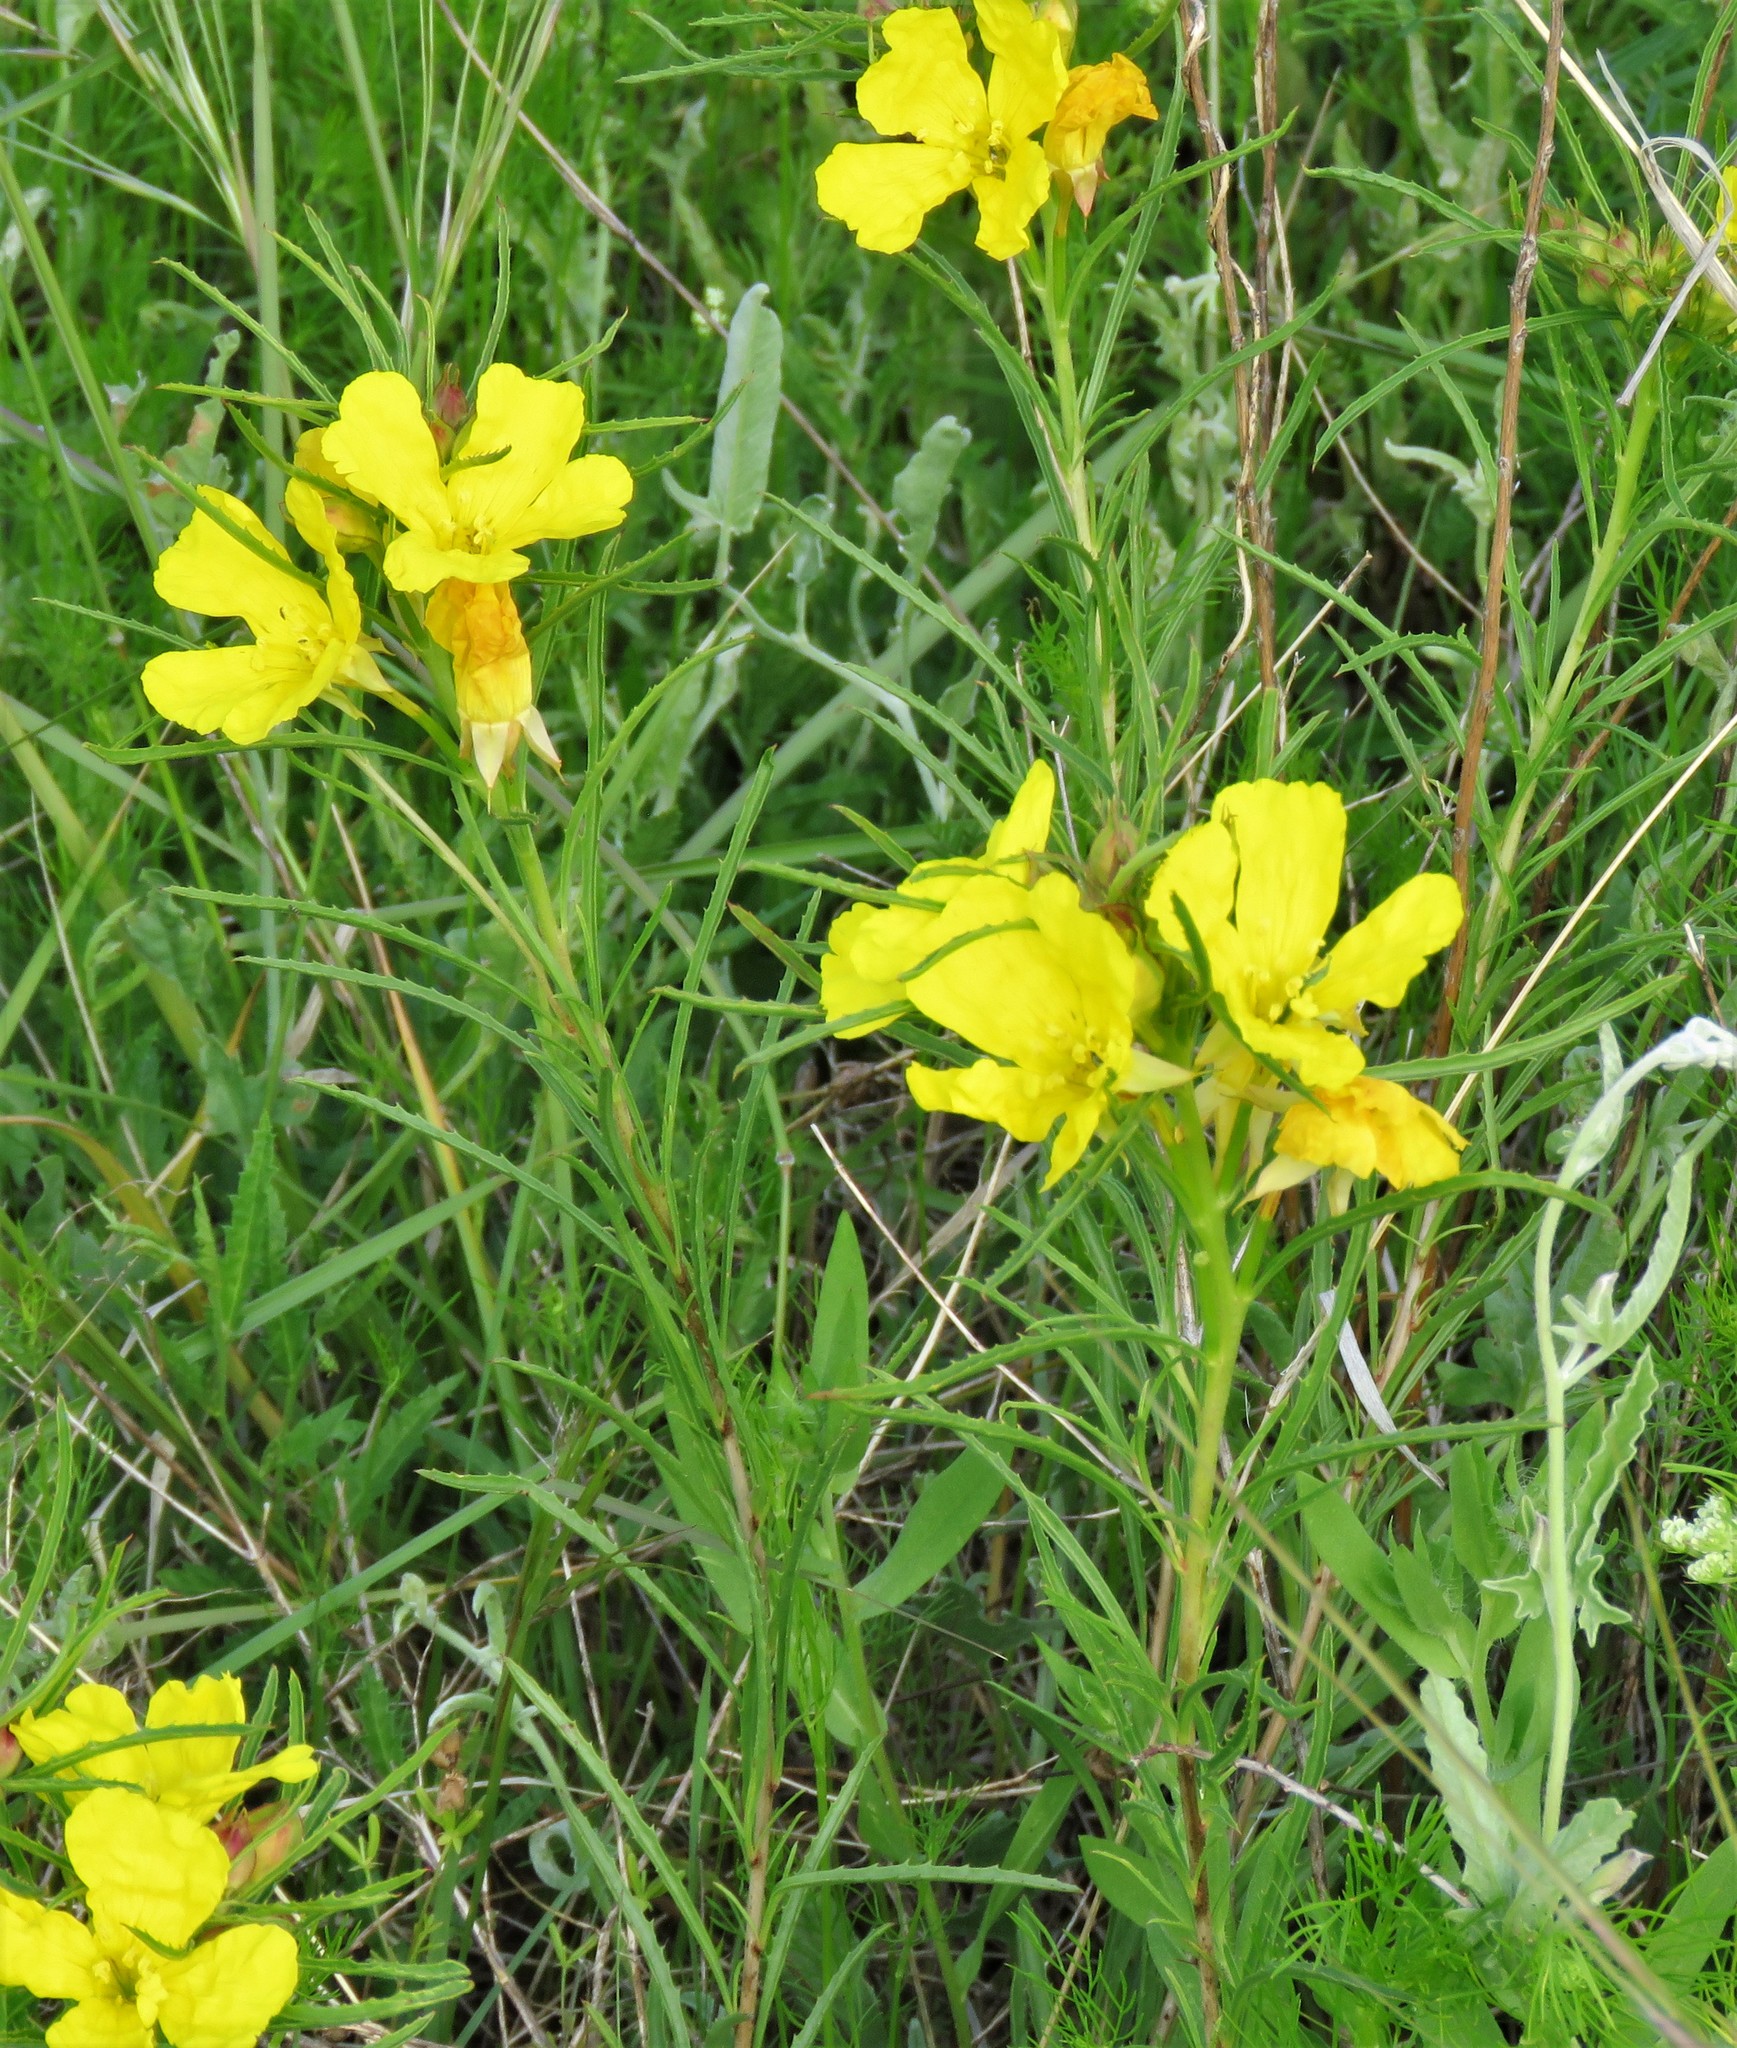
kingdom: Plantae
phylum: Tracheophyta
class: Magnoliopsida
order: Myrtales
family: Onagraceae
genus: Oenothera
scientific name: Oenothera
